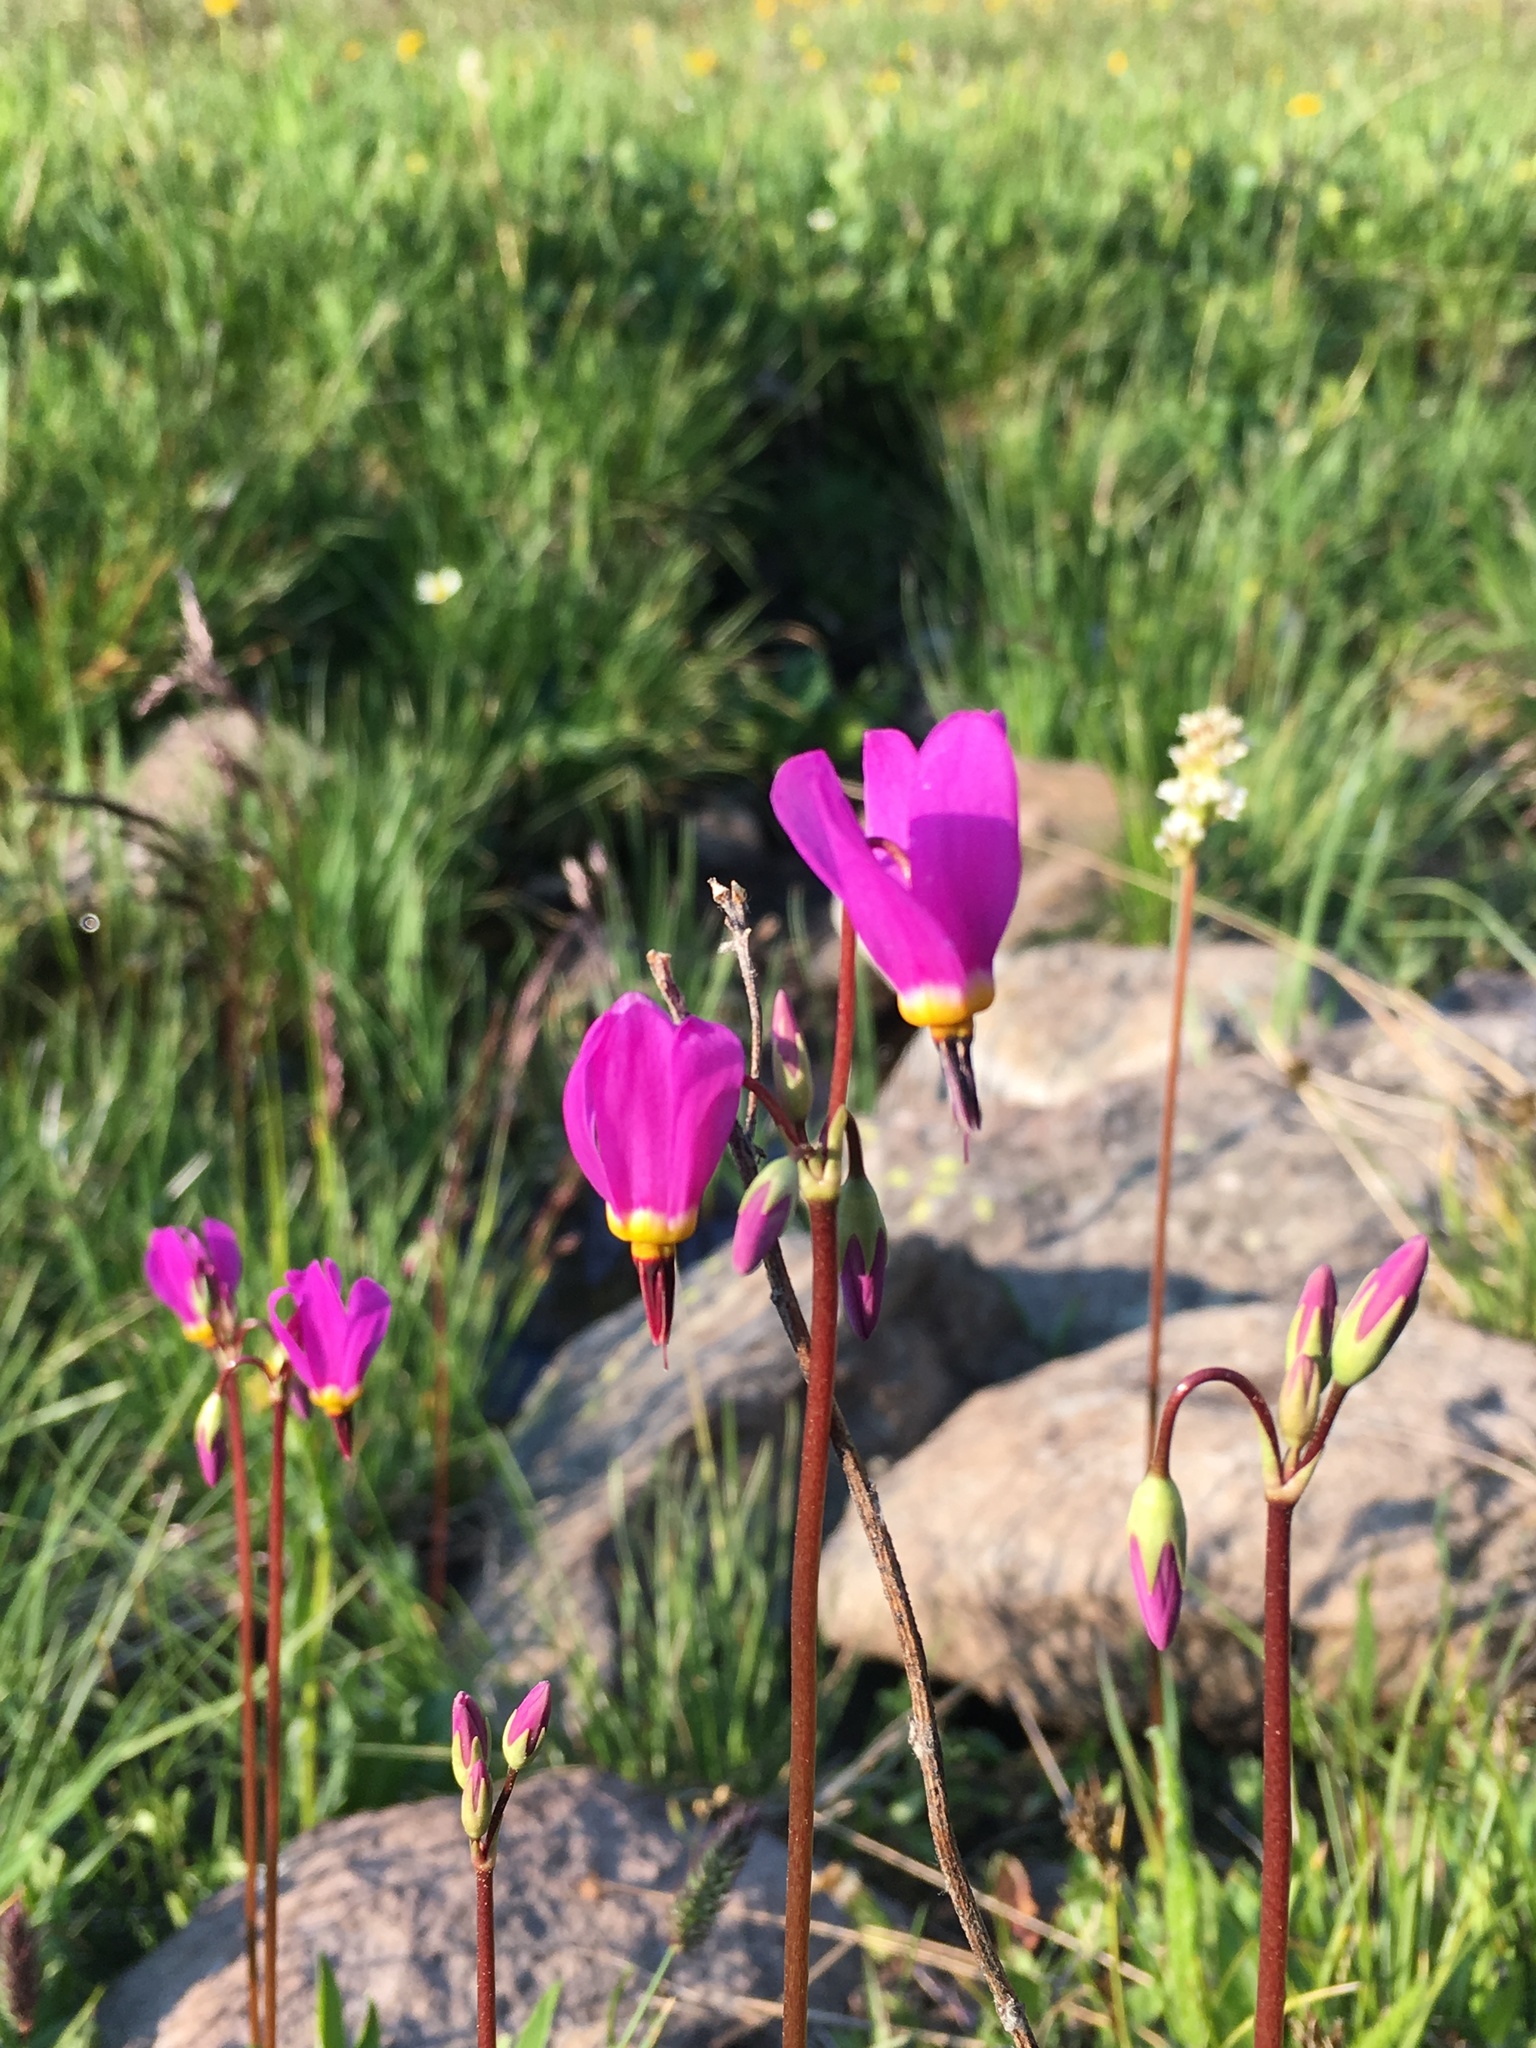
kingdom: Plantae
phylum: Tracheophyta
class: Magnoliopsida
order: Ericales
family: Primulaceae
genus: Dodecatheon
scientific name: Dodecatheon pulchellum
